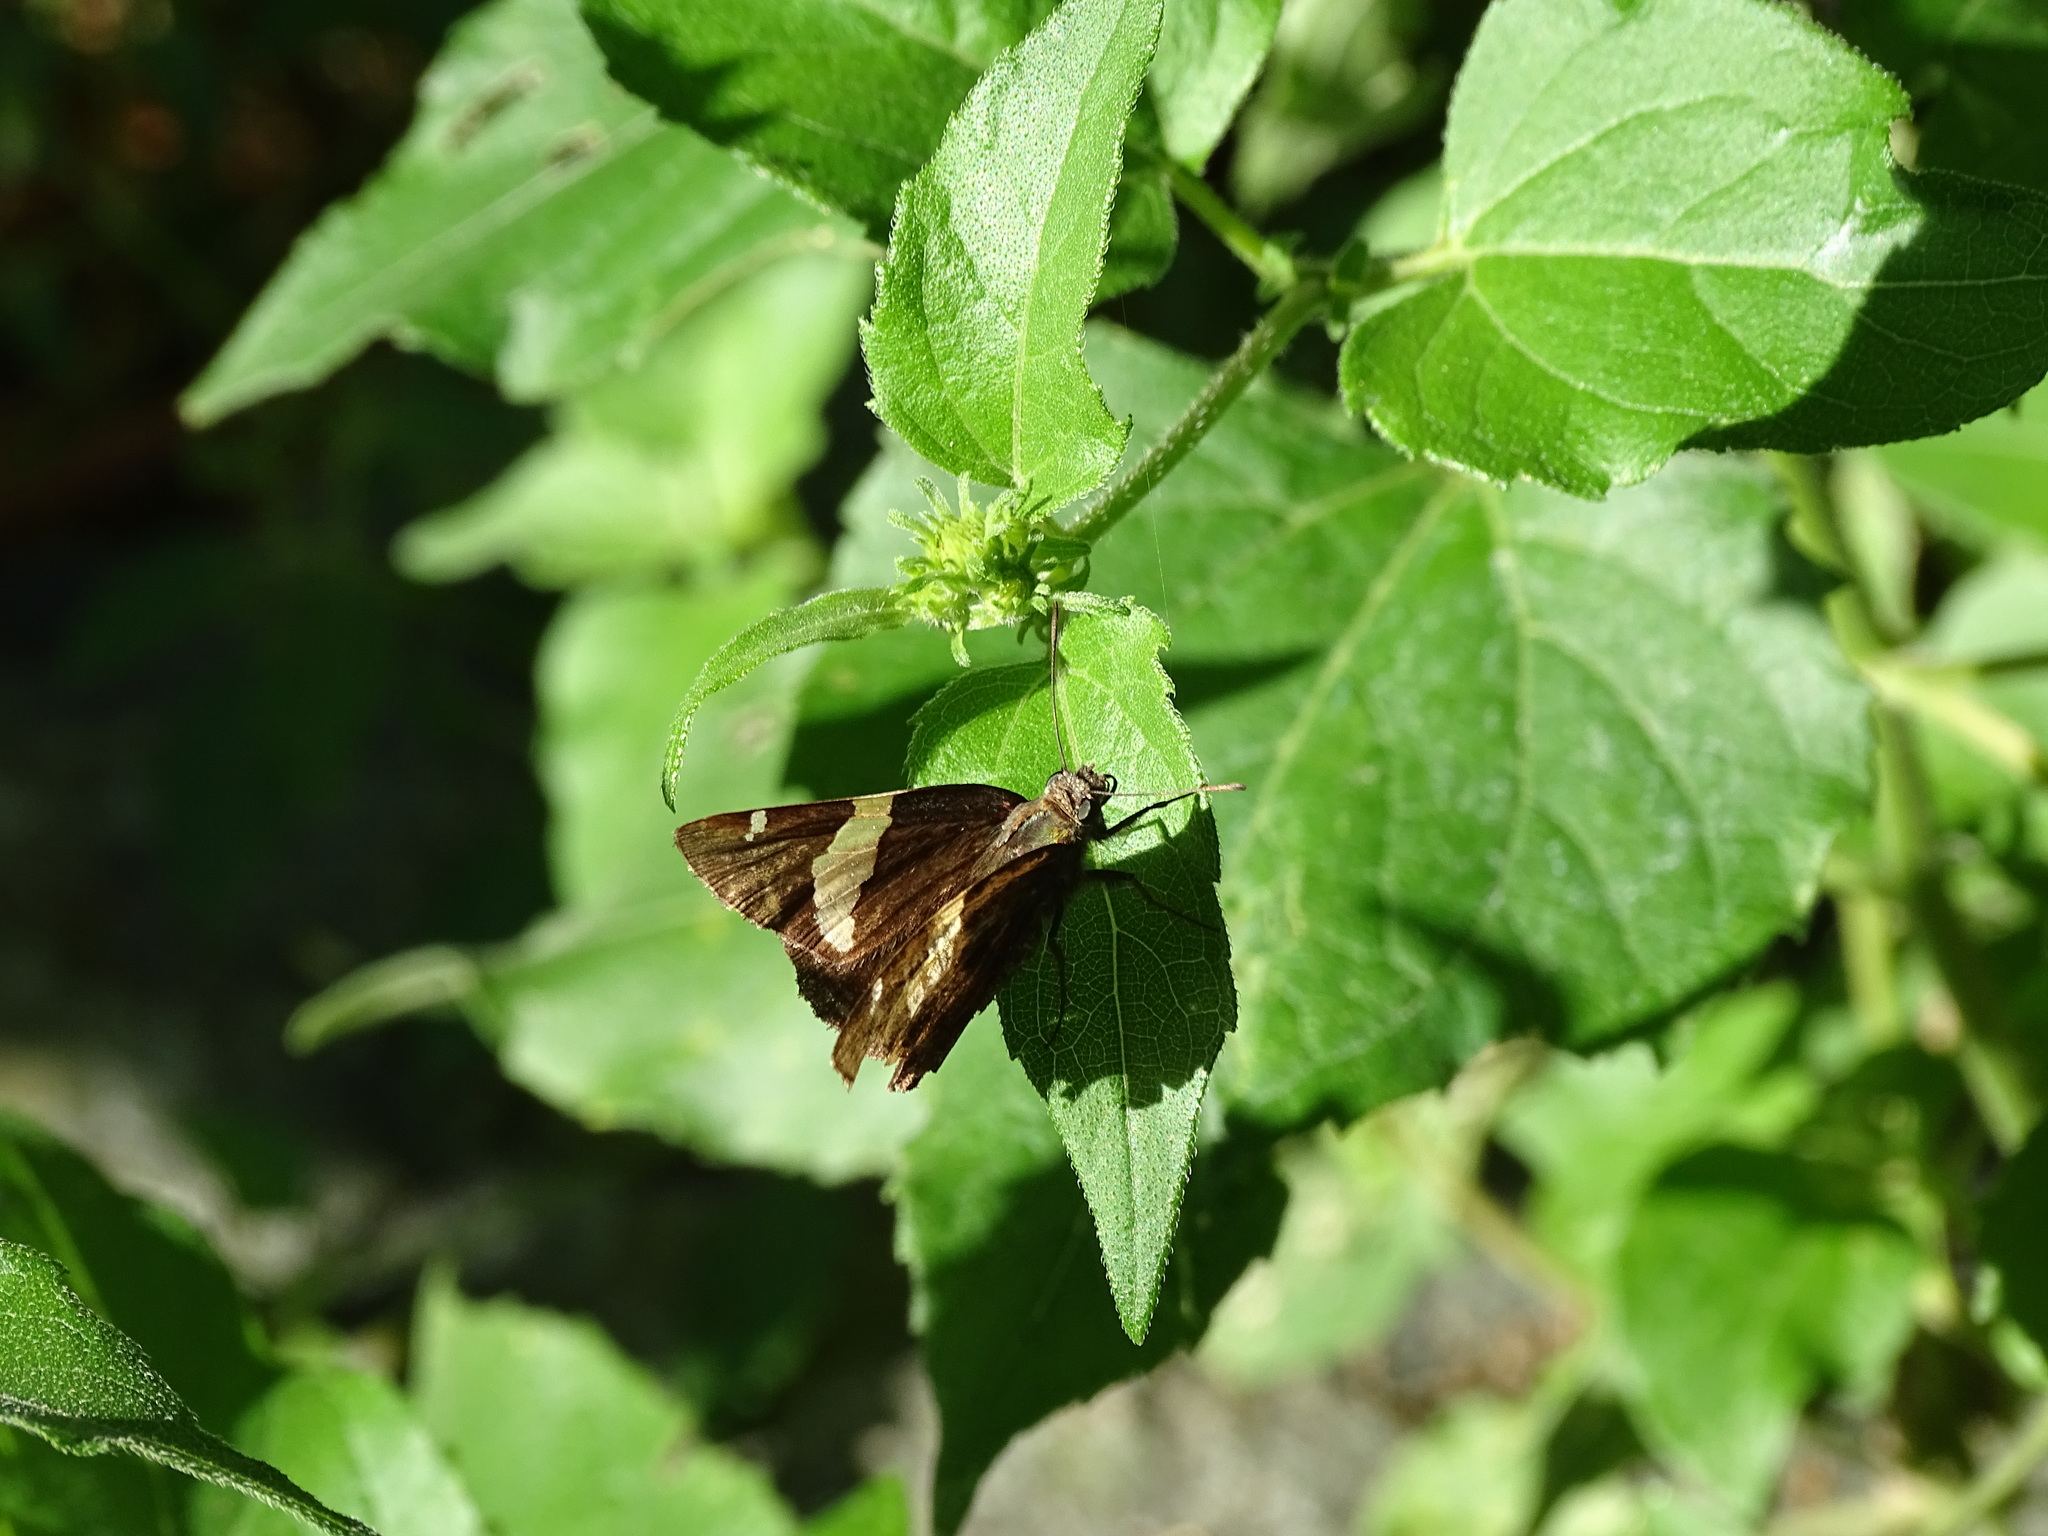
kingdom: Animalia
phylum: Arthropoda
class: Arachnida
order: Scorpiones
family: Bothriuridae
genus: Telegonus
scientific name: Telegonus cellus
